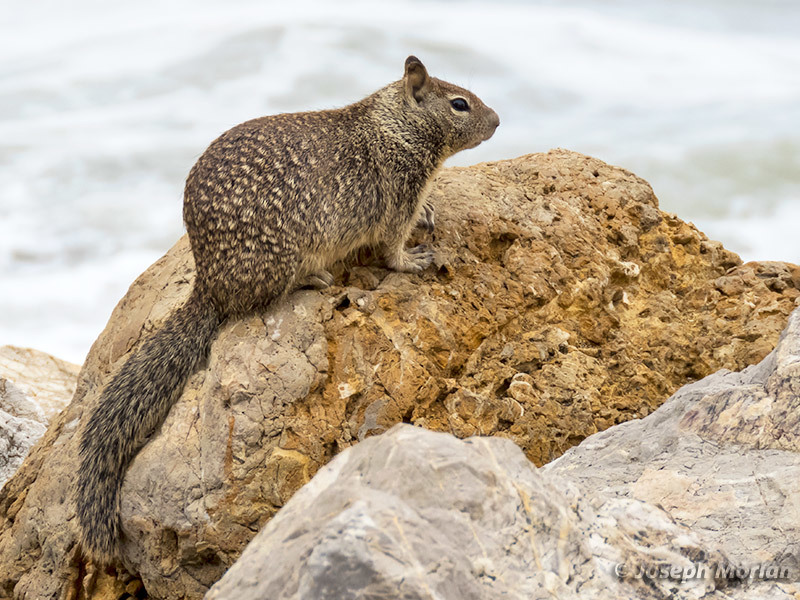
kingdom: Animalia
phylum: Chordata
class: Mammalia
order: Rodentia
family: Sciuridae
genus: Otospermophilus
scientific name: Otospermophilus beecheyi
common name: California ground squirrel
